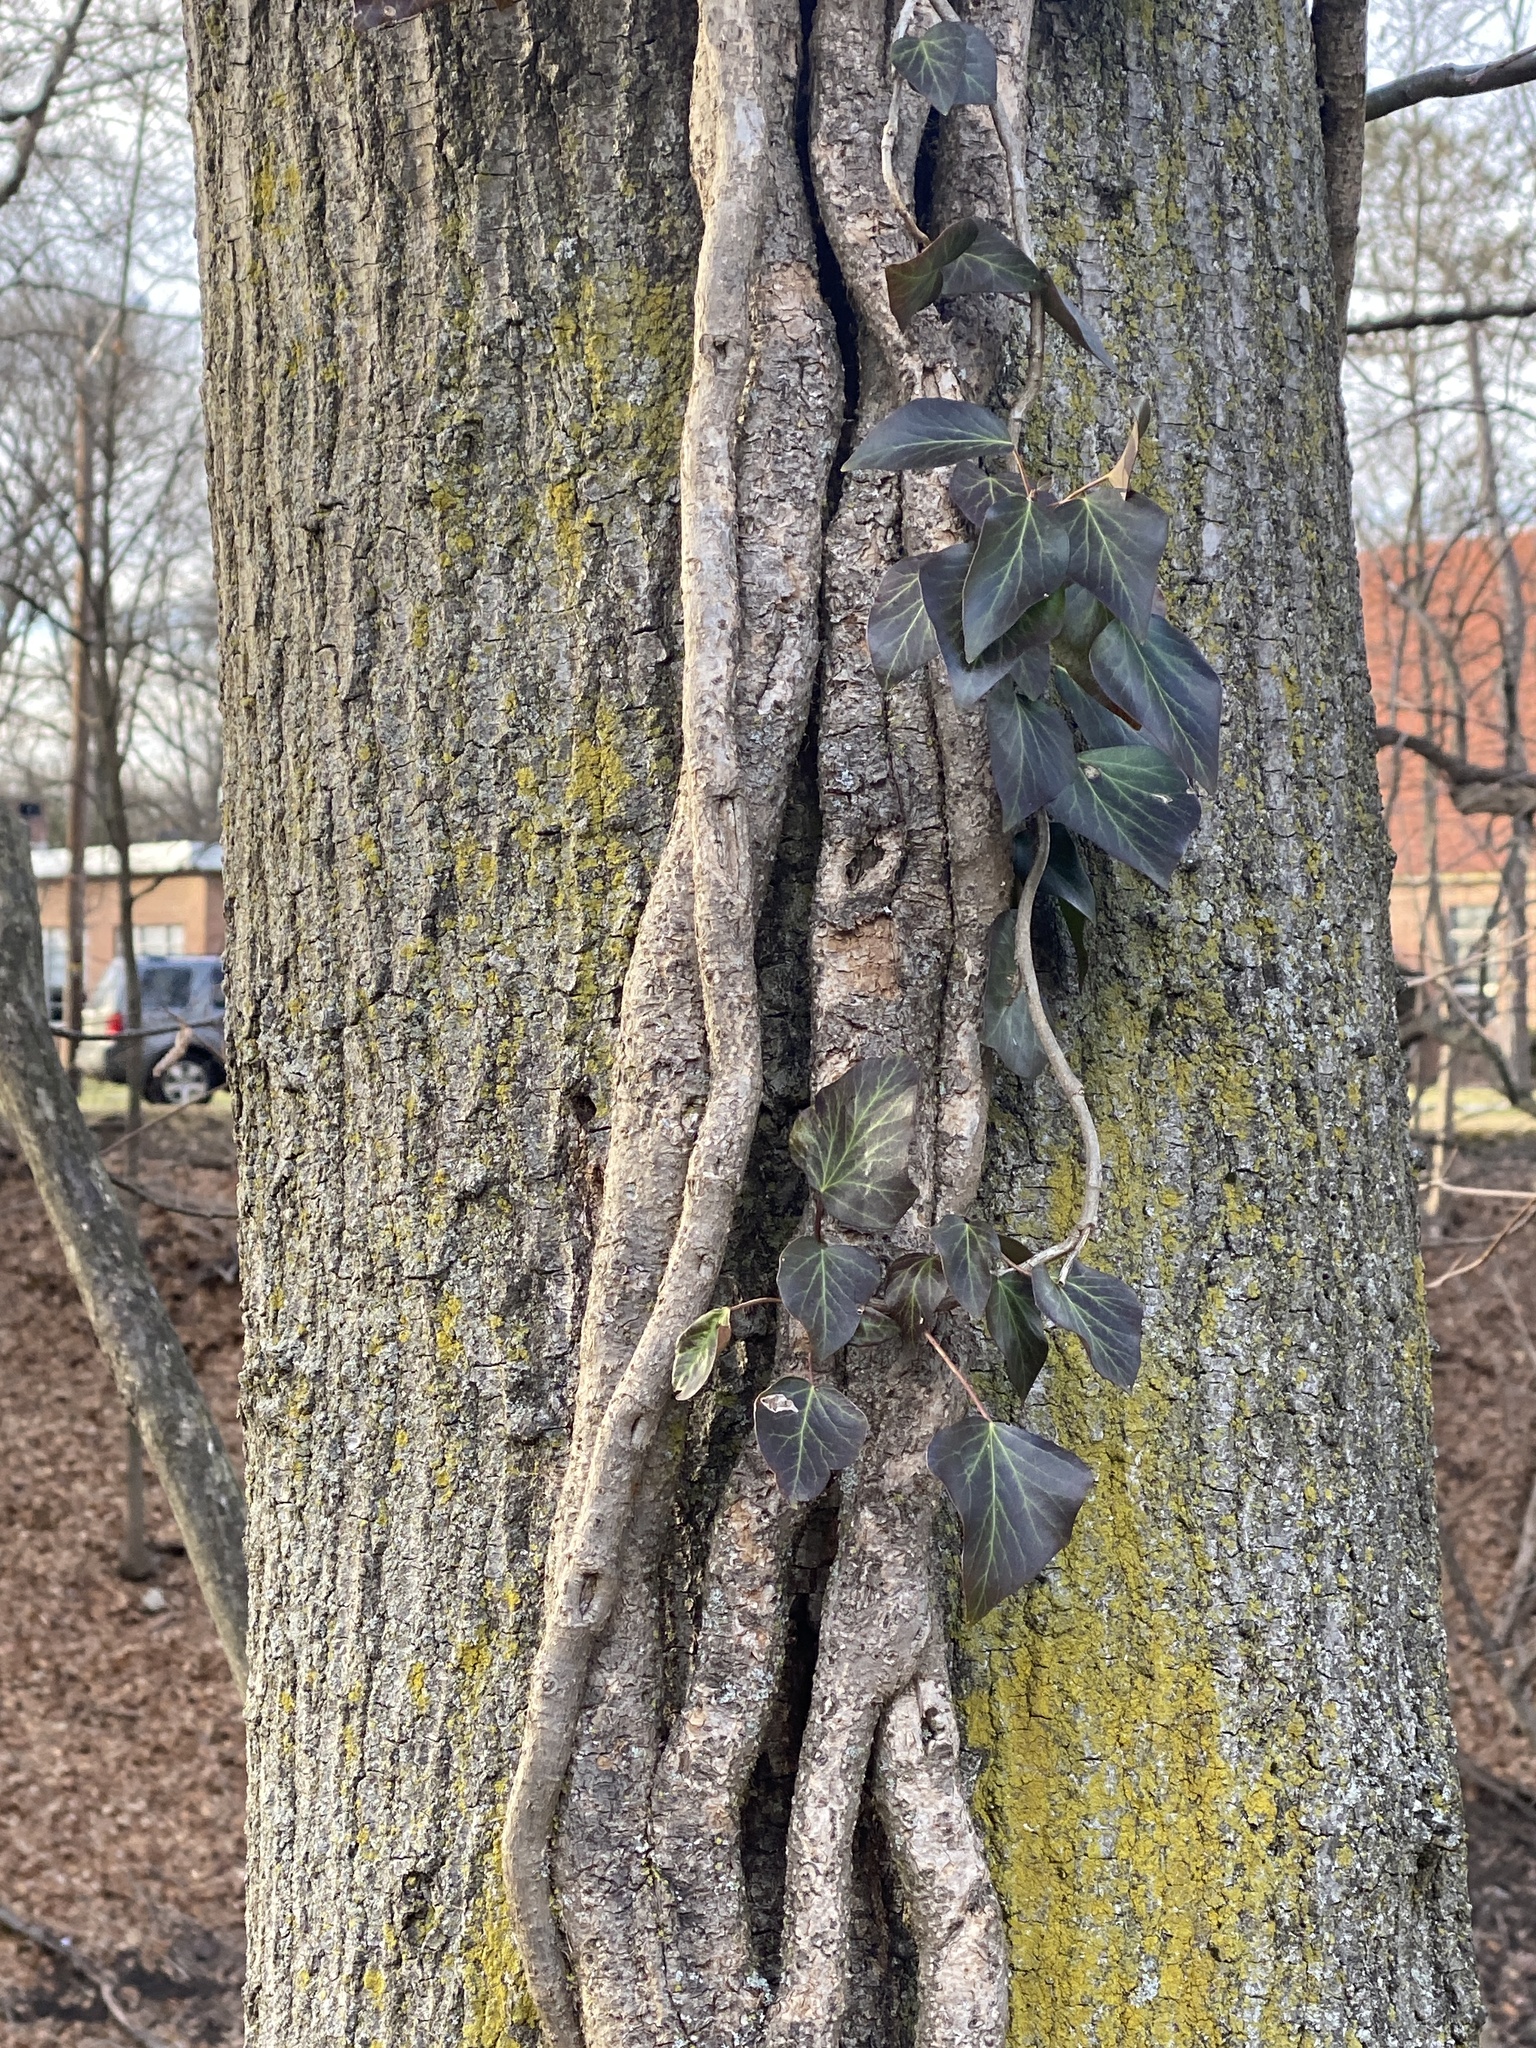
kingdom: Plantae
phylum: Tracheophyta
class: Magnoliopsida
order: Apiales
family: Araliaceae
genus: Hedera
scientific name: Hedera
